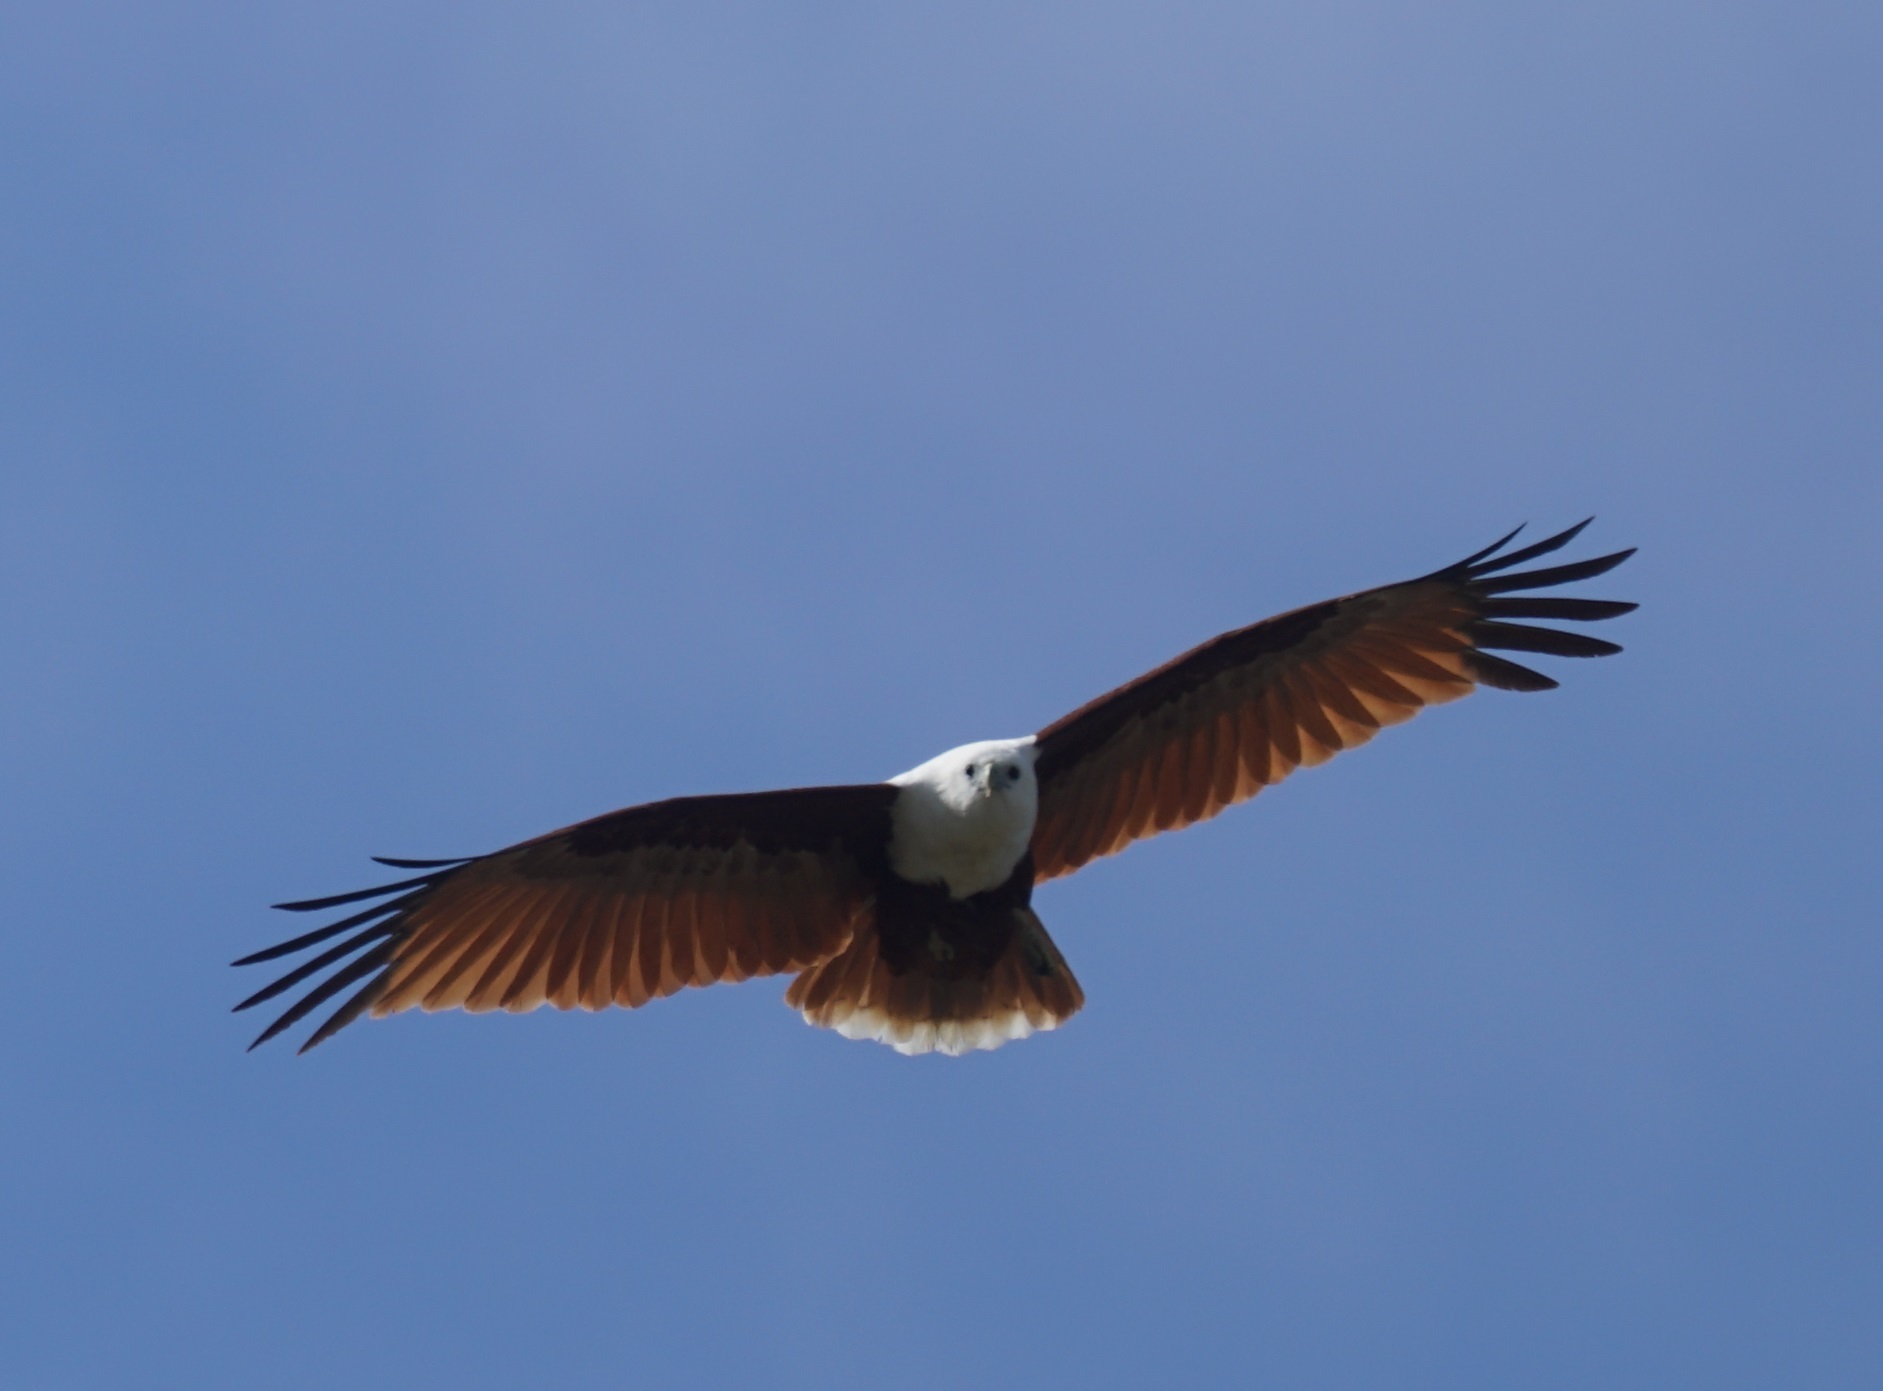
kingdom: Animalia
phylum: Chordata
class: Aves
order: Accipitriformes
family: Accipitridae
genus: Haliastur
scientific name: Haliastur indus
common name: Brahminy kite
